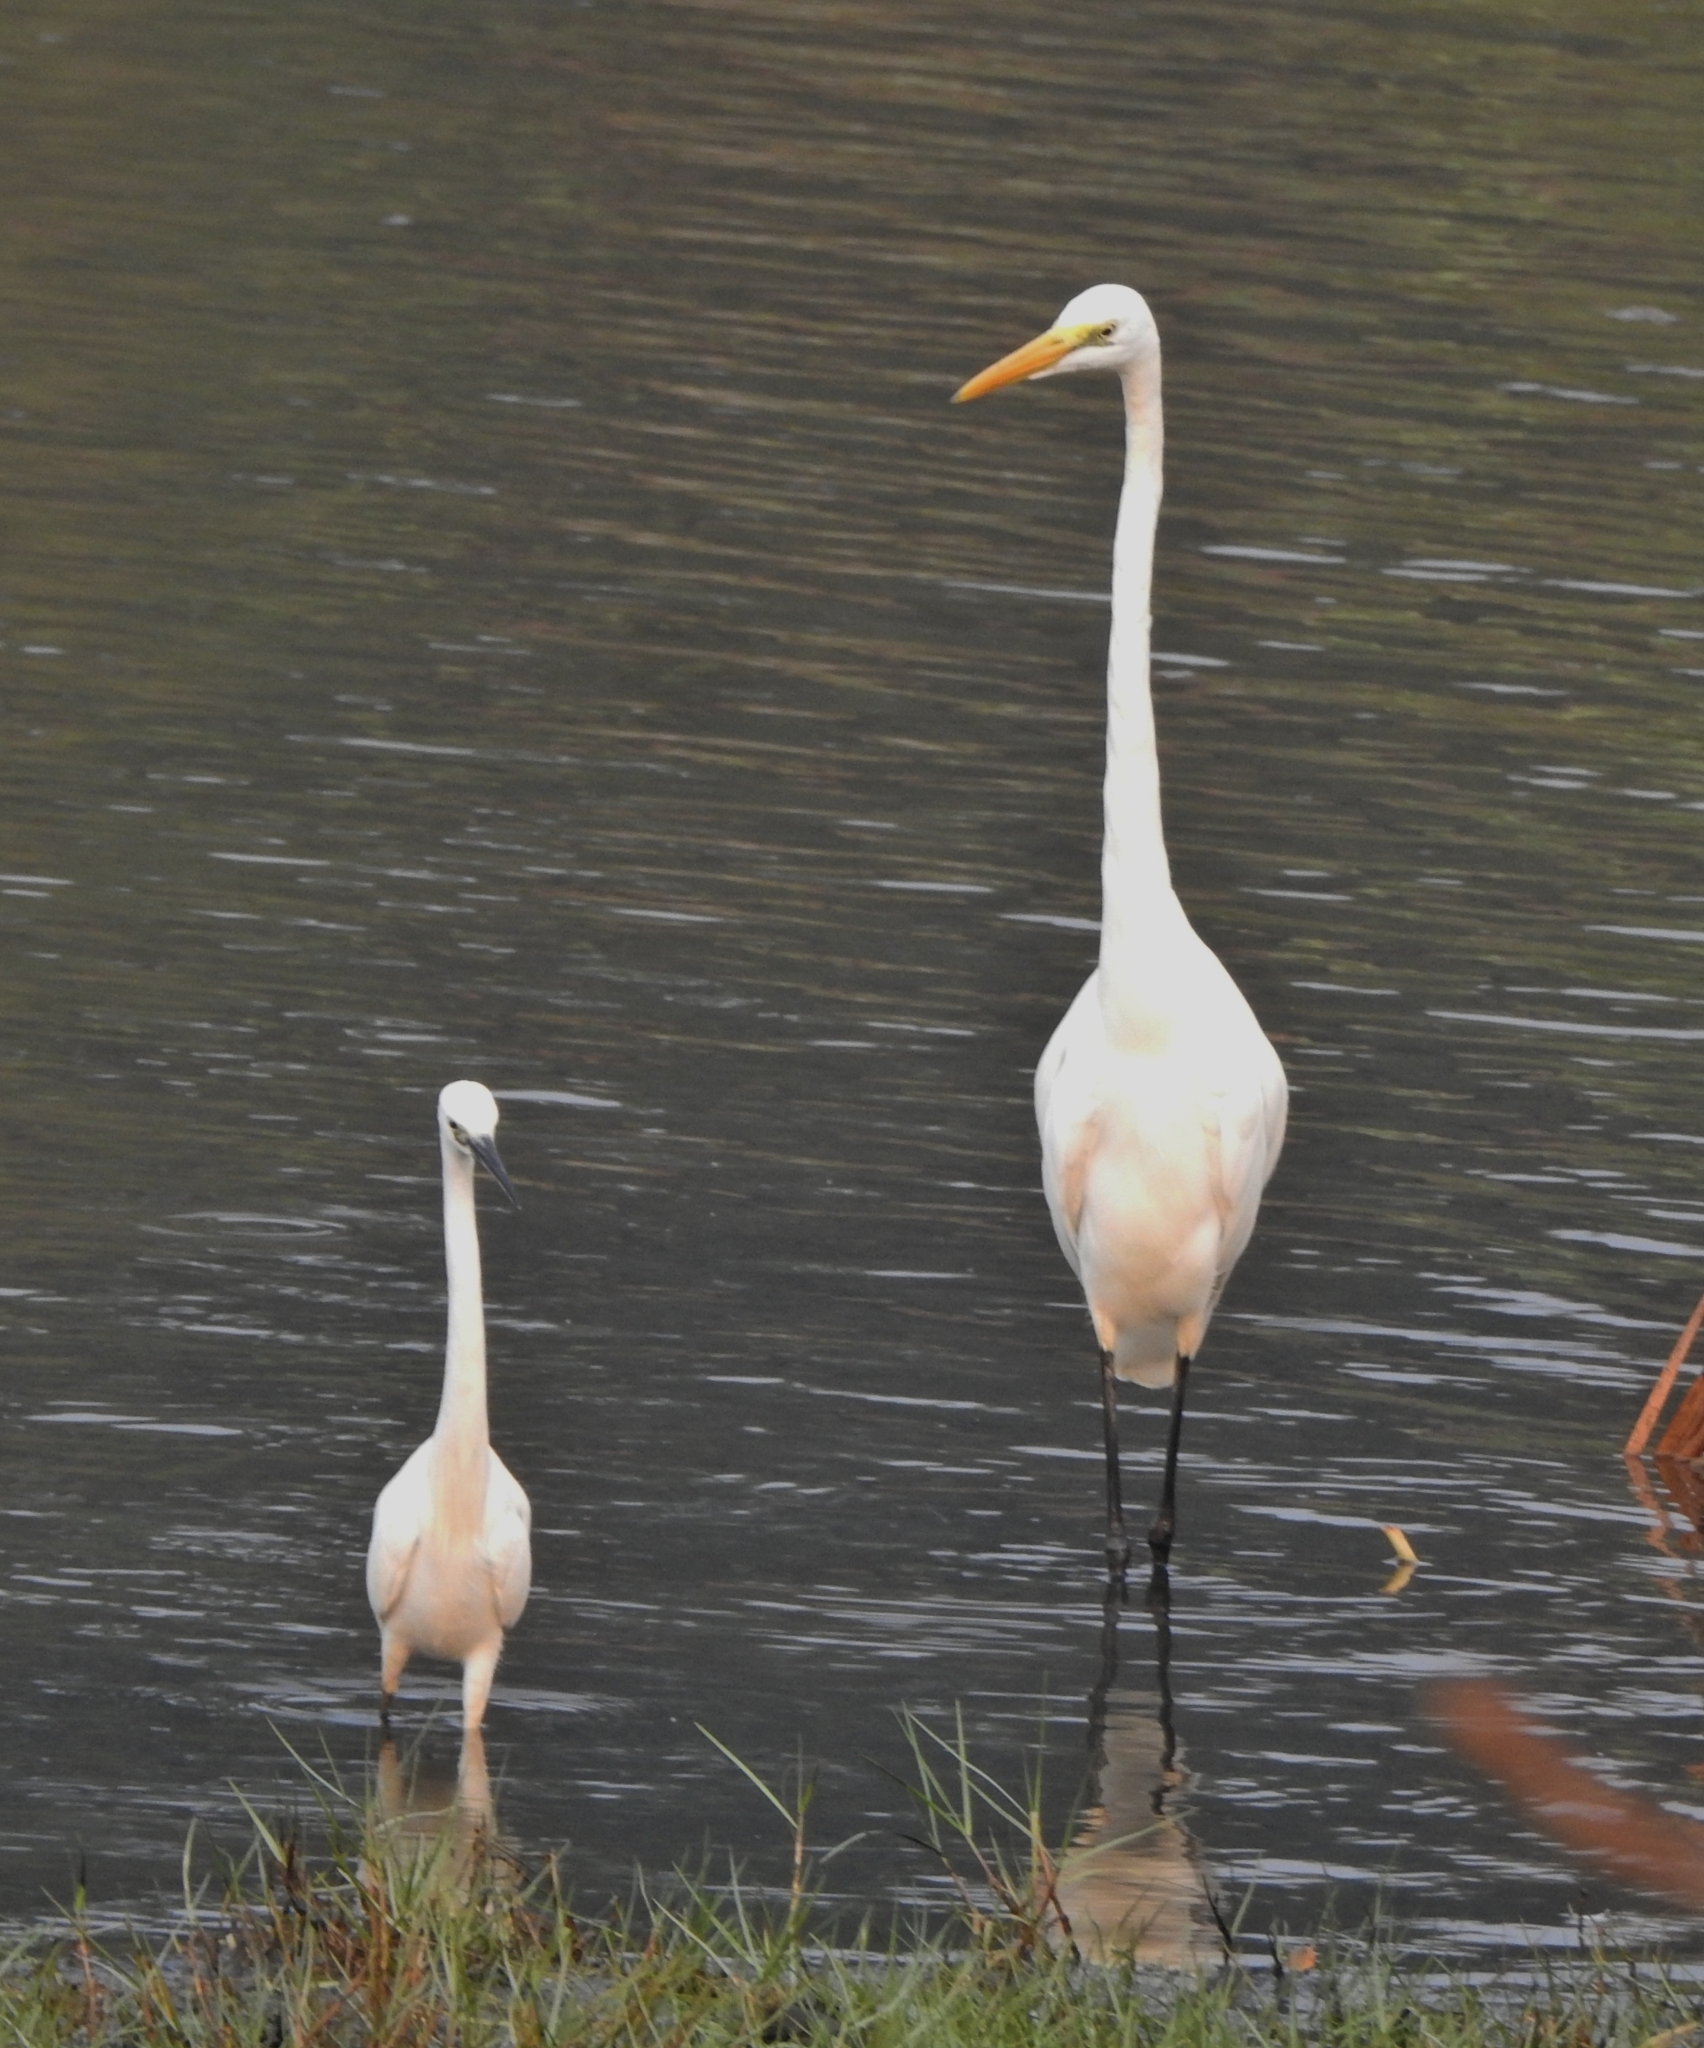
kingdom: Animalia
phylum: Chordata
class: Aves
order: Pelecaniformes
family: Ardeidae
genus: Ardea
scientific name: Ardea alba
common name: Great egret
